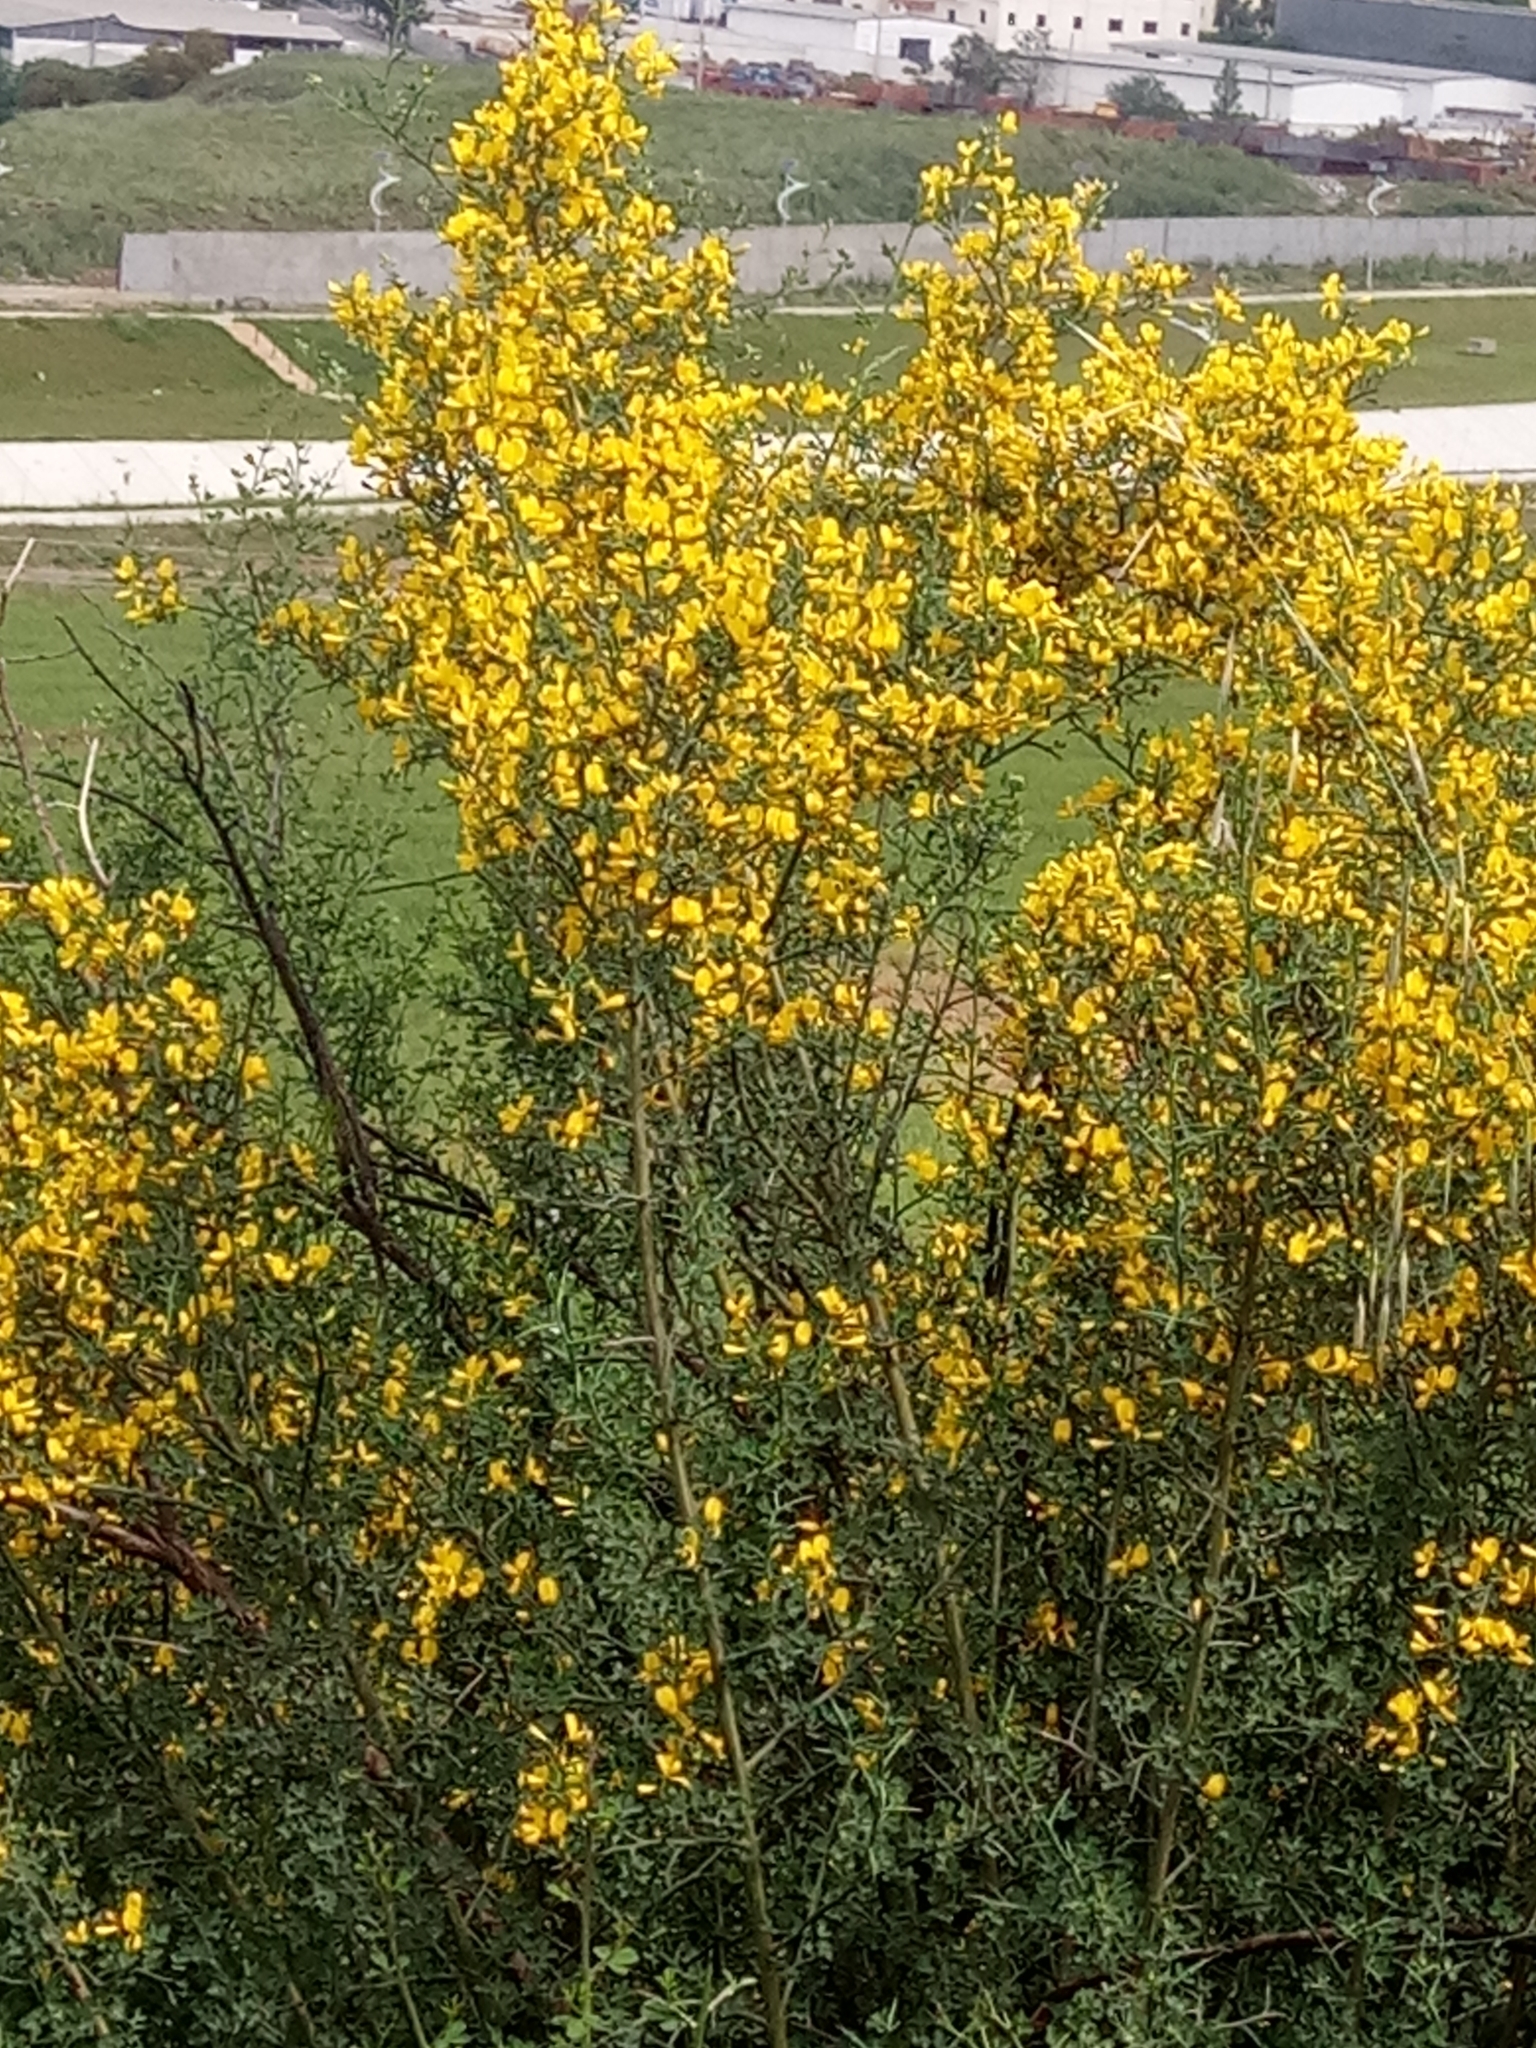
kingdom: Plantae
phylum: Tracheophyta
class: Magnoliopsida
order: Fabales
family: Fabaceae
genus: Calicotome
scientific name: Calicotome spinosa
